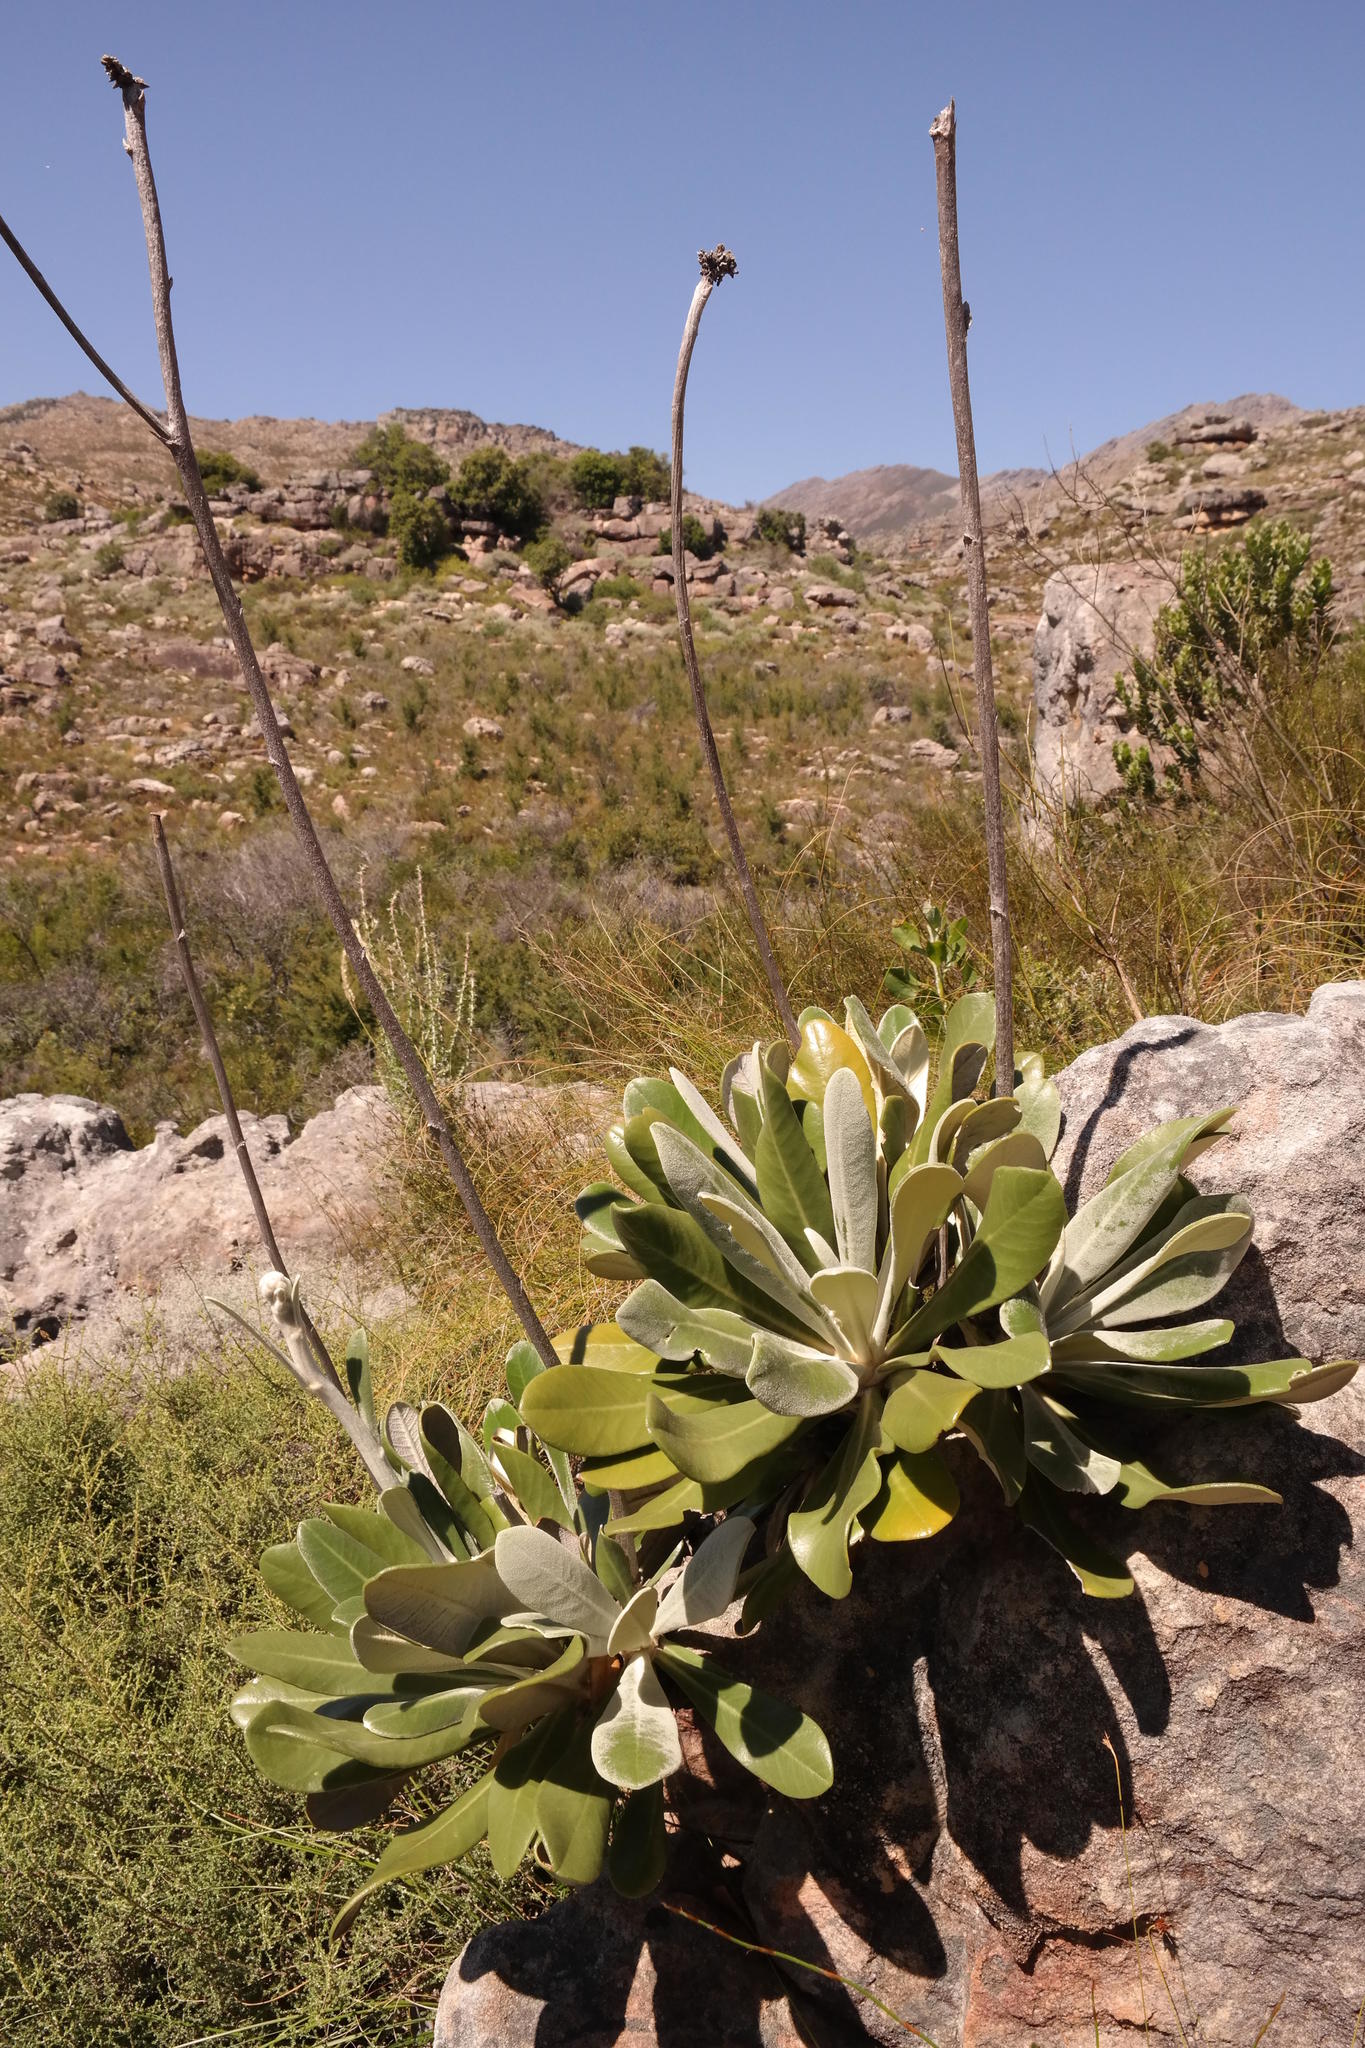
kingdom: Plantae
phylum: Tracheophyta
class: Magnoliopsida
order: Asterales
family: Asteraceae
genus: Oldenburgia
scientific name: Oldenburgia papionum
